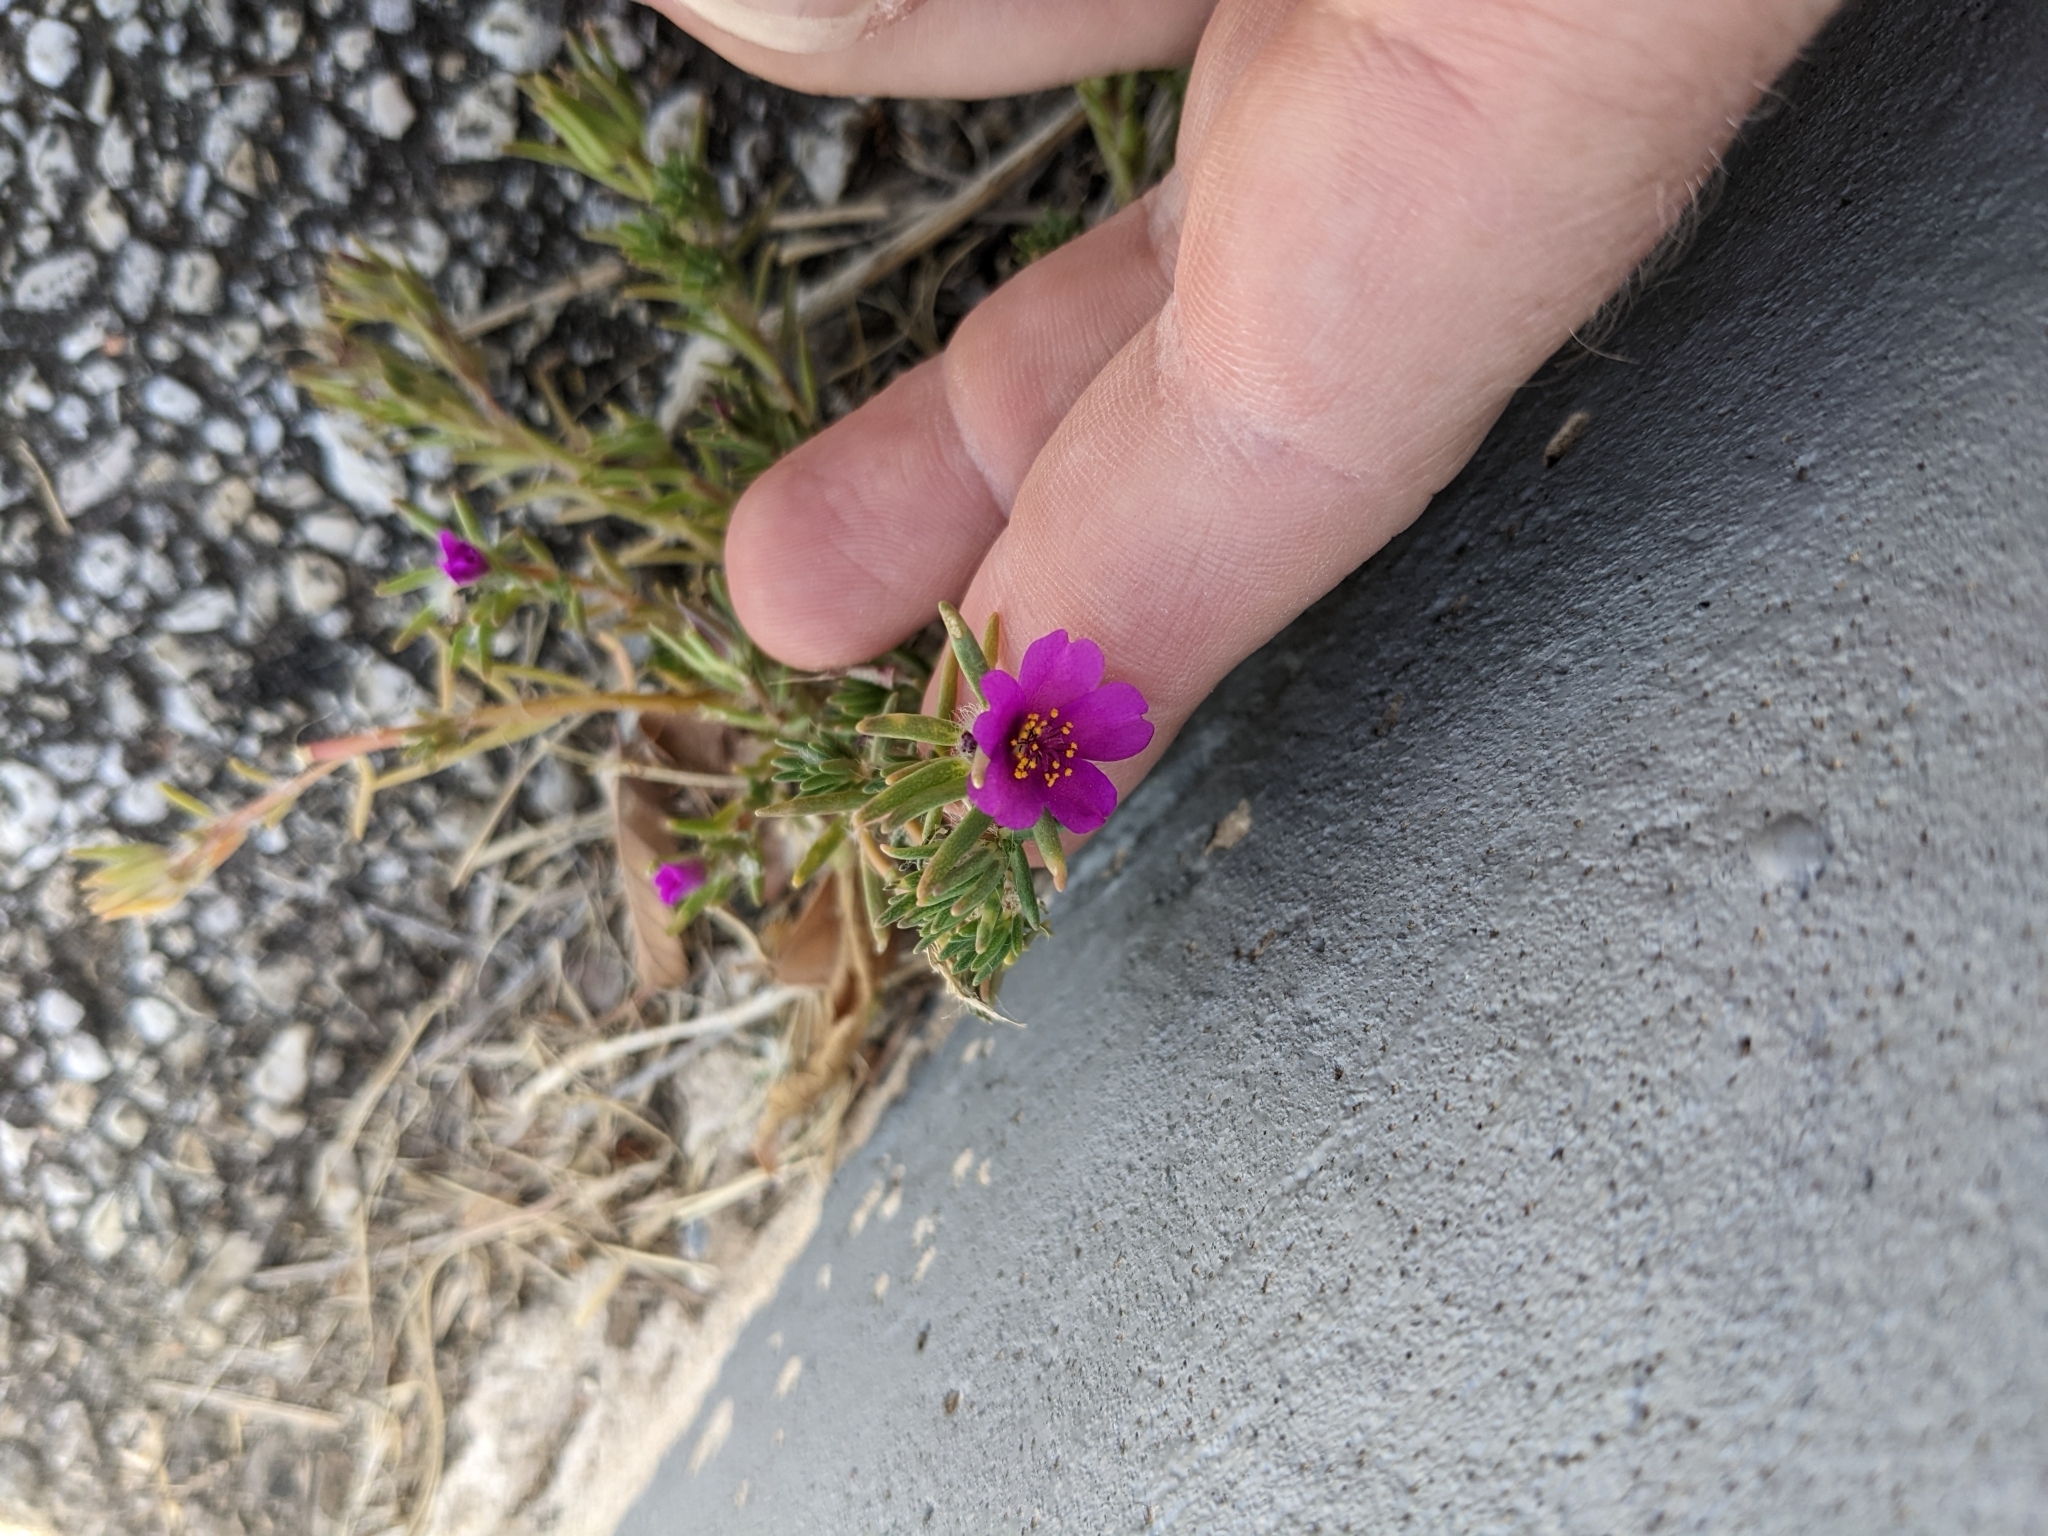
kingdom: Plantae
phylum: Tracheophyta
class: Magnoliopsida
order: Caryophyllales
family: Portulacaceae
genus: Portulaca
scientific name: Portulaca pilosa
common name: Kiss me quick
